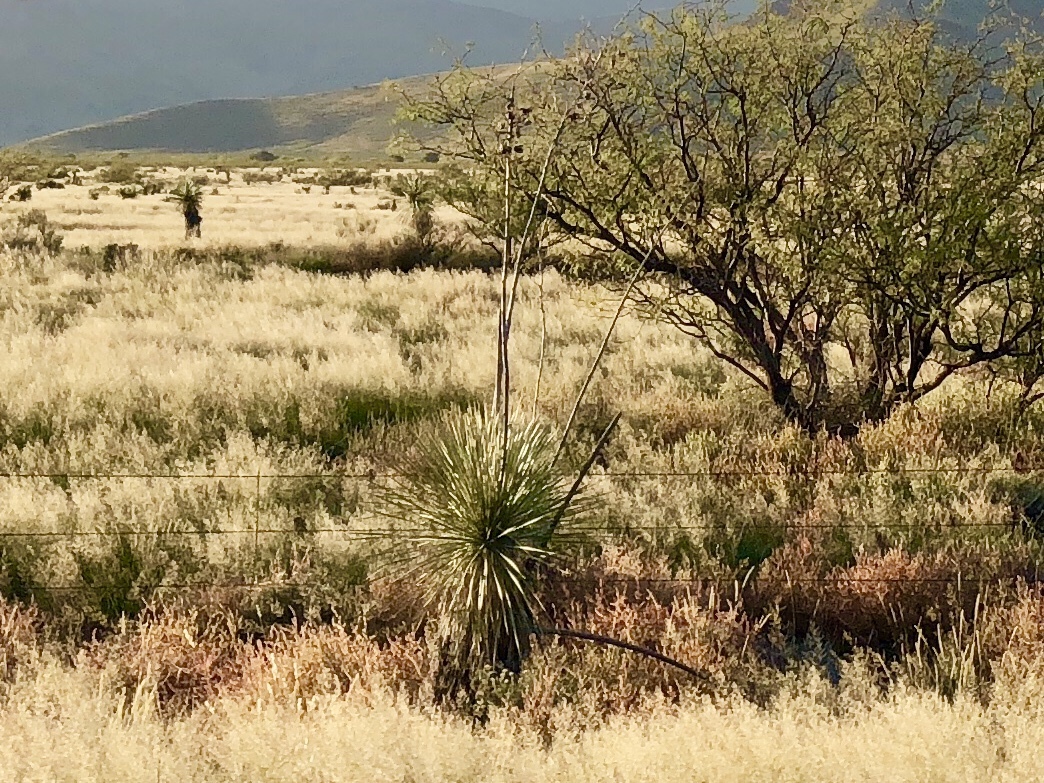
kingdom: Plantae
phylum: Tracheophyta
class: Liliopsida
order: Asparagales
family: Asparagaceae
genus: Yucca
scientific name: Yucca elata
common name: Palmella
